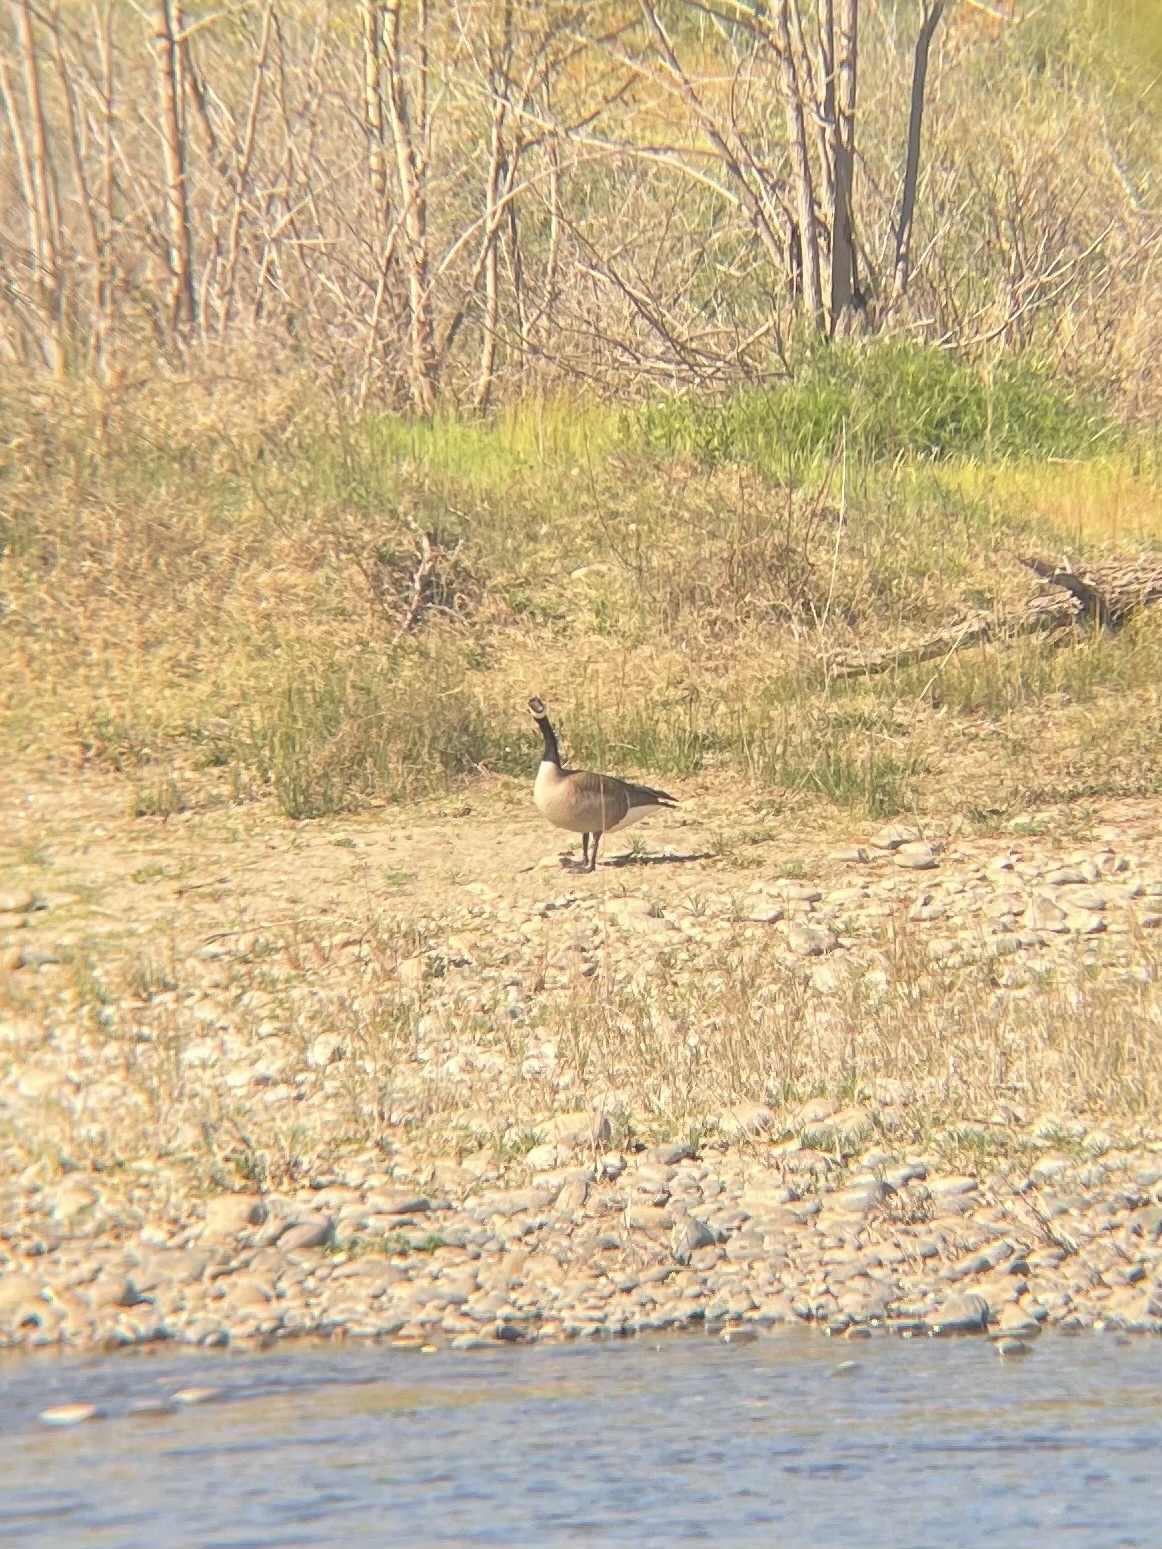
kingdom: Animalia
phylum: Chordata
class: Aves
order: Anseriformes
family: Anatidae
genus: Branta
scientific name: Branta canadensis
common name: Canada goose
